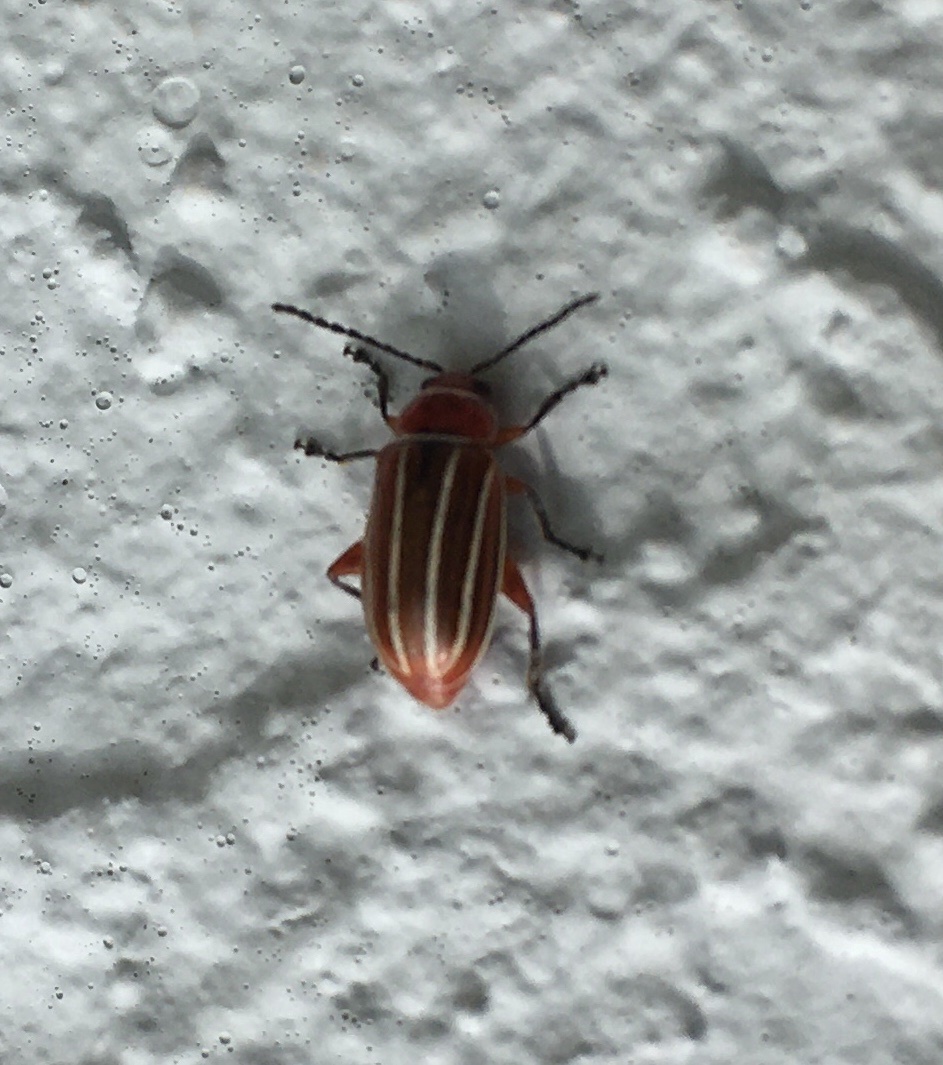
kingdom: Animalia
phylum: Arthropoda
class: Insecta
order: Coleoptera
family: Chrysomelidae
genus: Disonycha
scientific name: Disonycha conjugata
